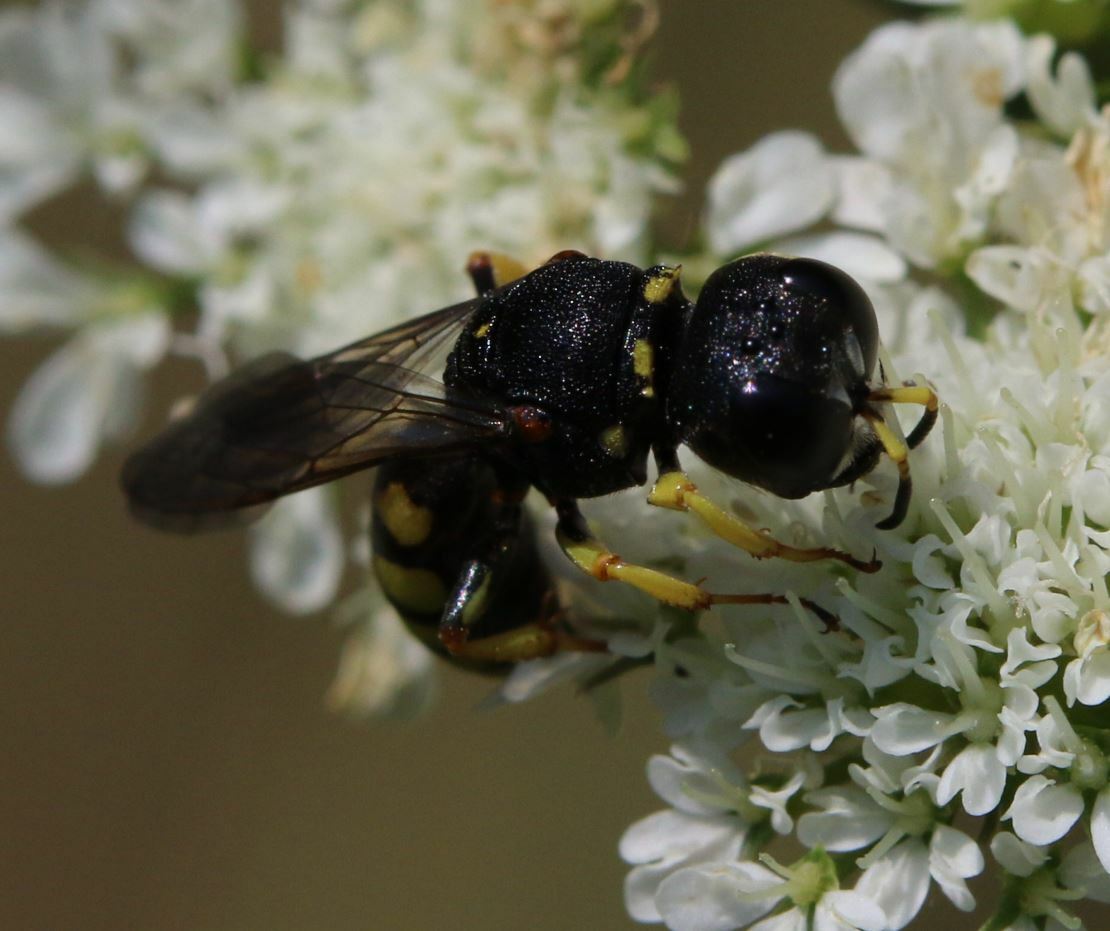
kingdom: Animalia
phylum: Arthropoda
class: Insecta
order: Hymenoptera
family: Crabronidae
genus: Lestica
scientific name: Lestica clypeata
